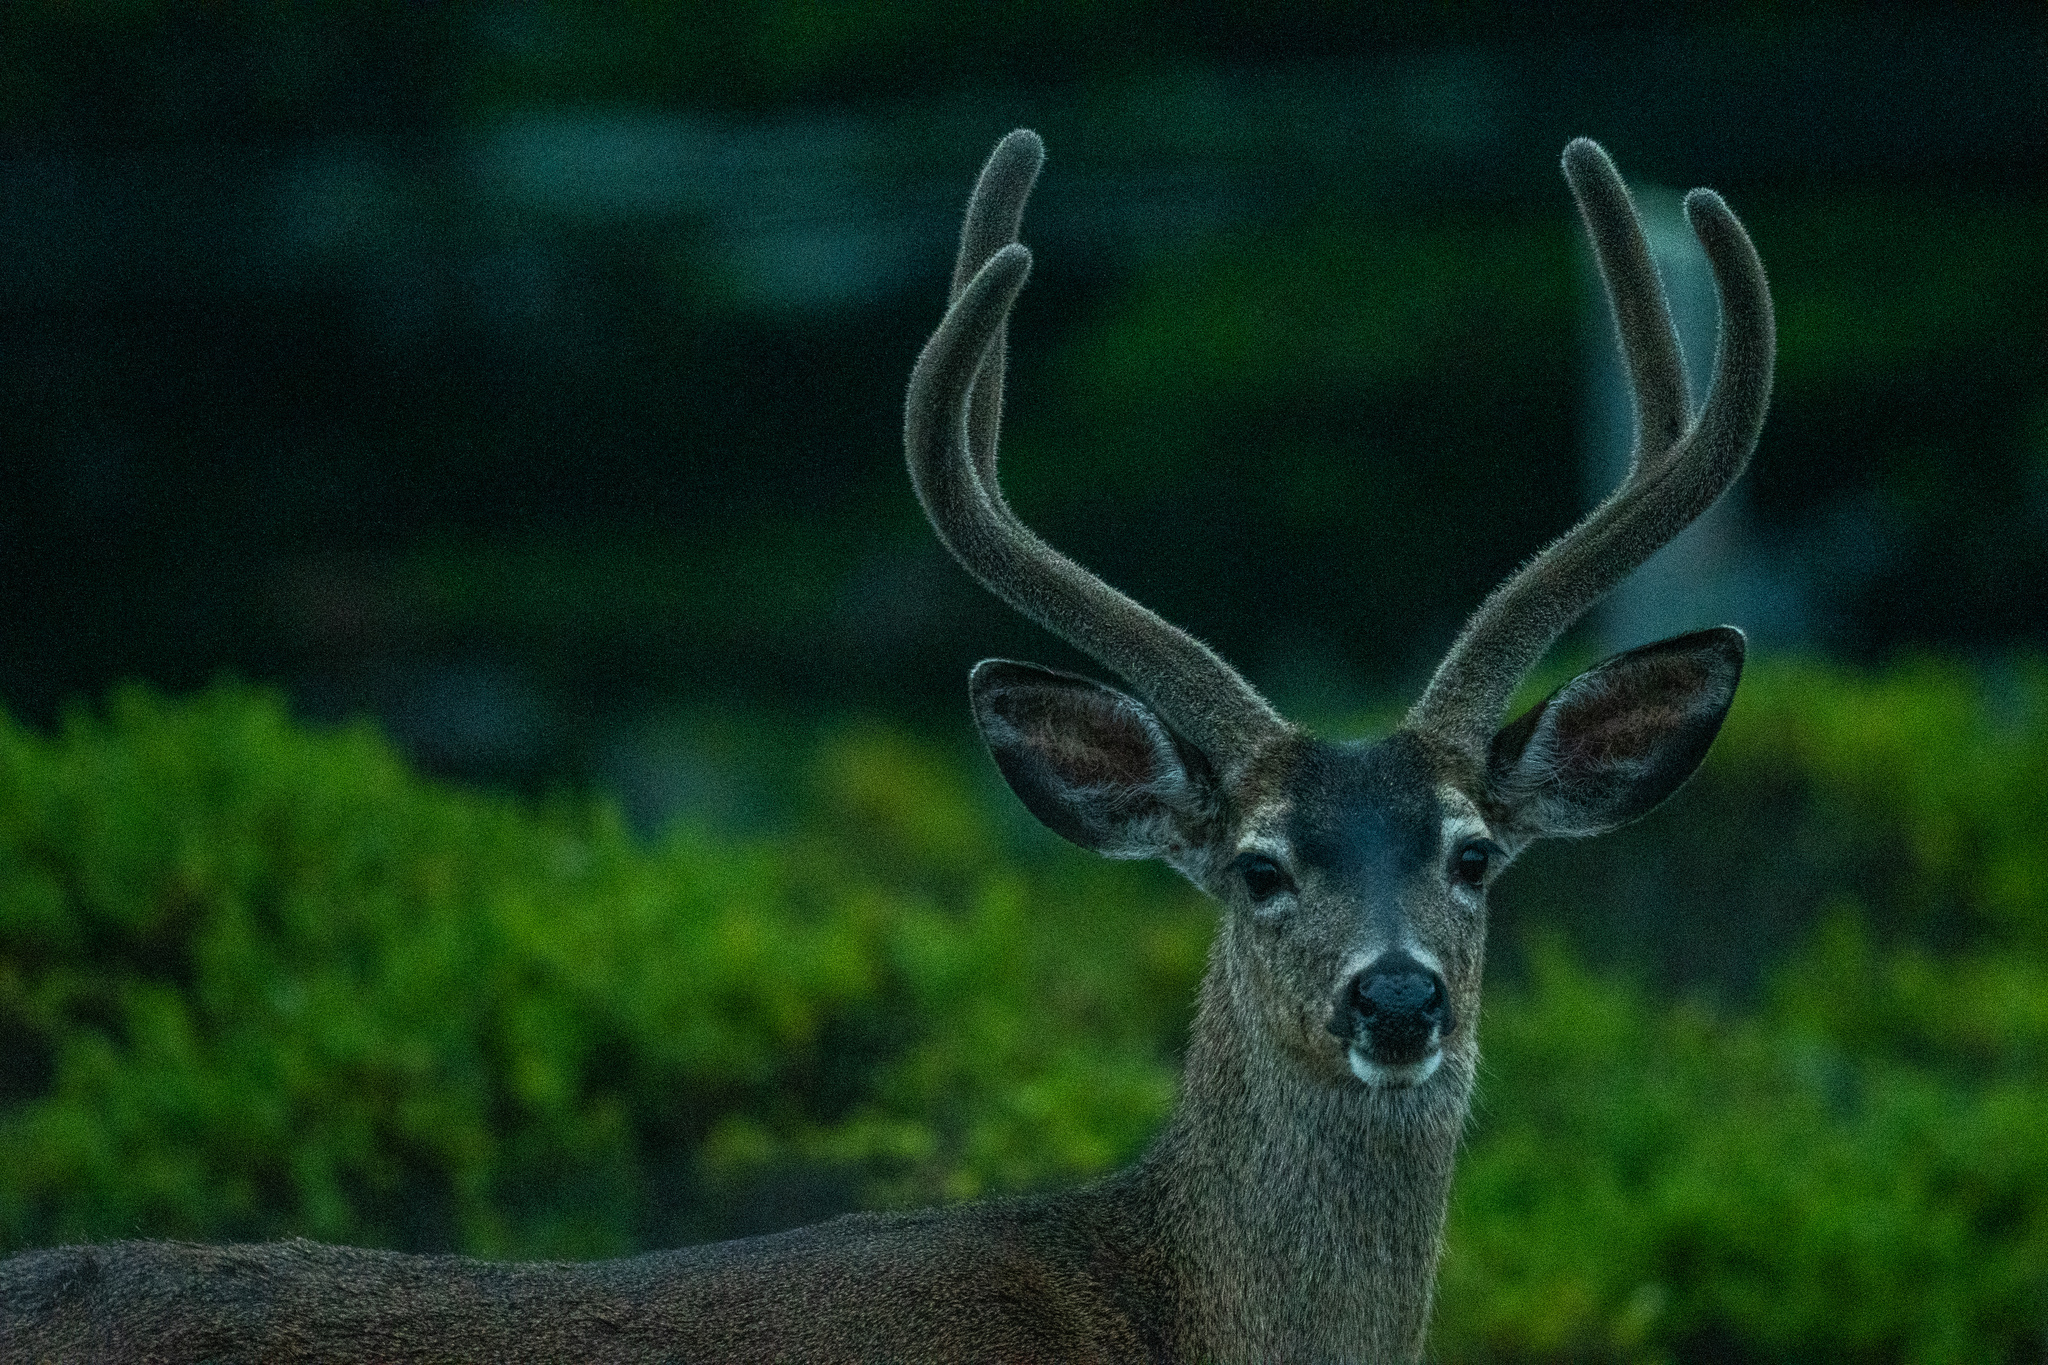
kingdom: Animalia
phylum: Chordata
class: Mammalia
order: Artiodactyla
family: Cervidae
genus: Odocoileus
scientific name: Odocoileus hemionus
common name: Mule deer
